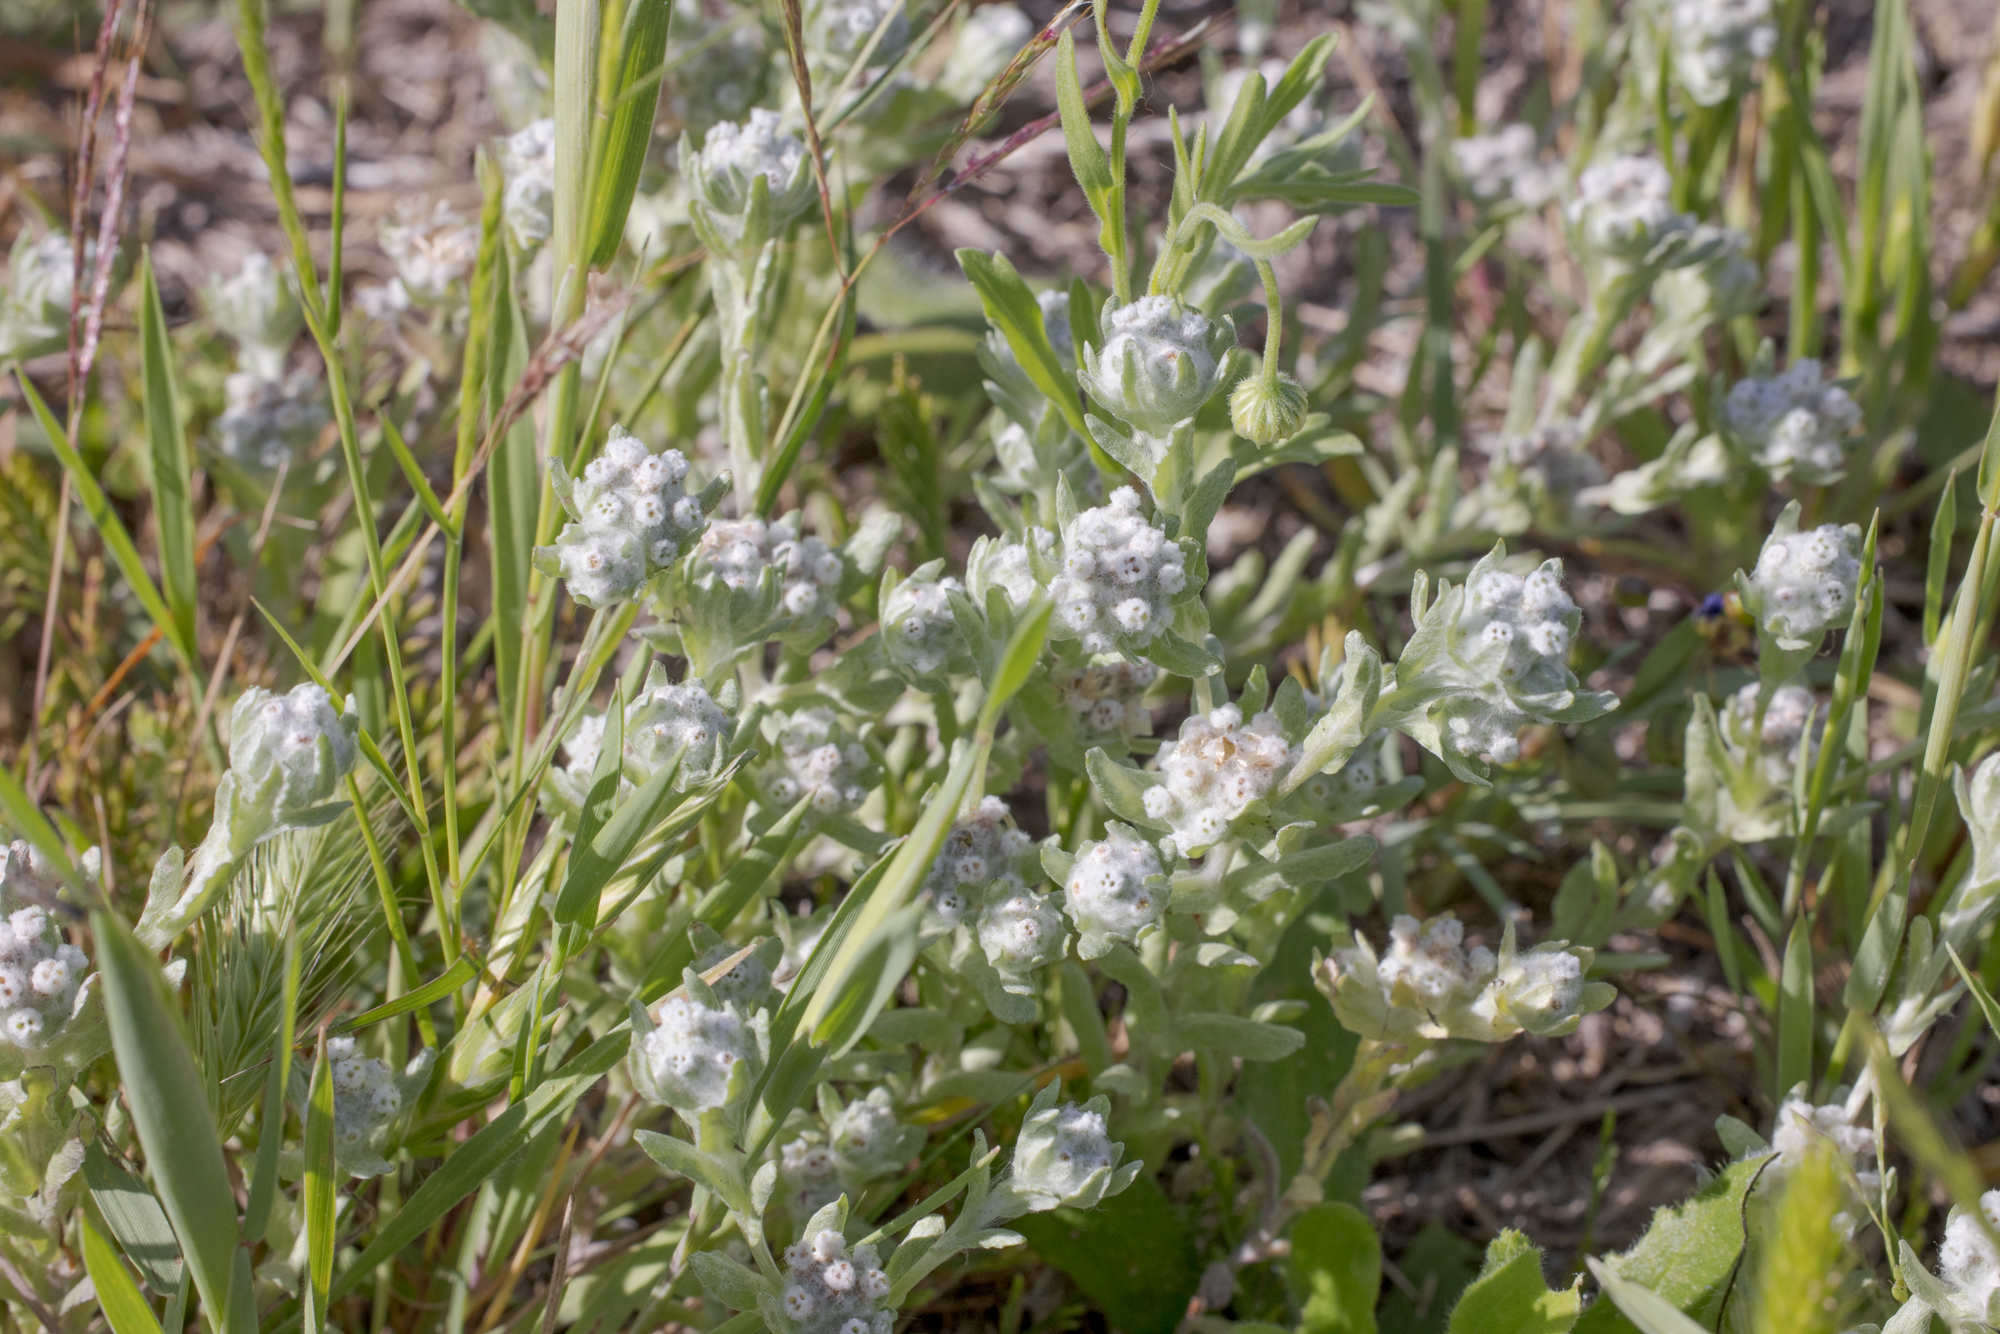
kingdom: Plantae
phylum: Tracheophyta
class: Magnoliopsida
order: Asterales
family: Asteraceae
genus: Diaperia
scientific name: Diaperia verna
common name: Many-stem rabbit-tobacco
